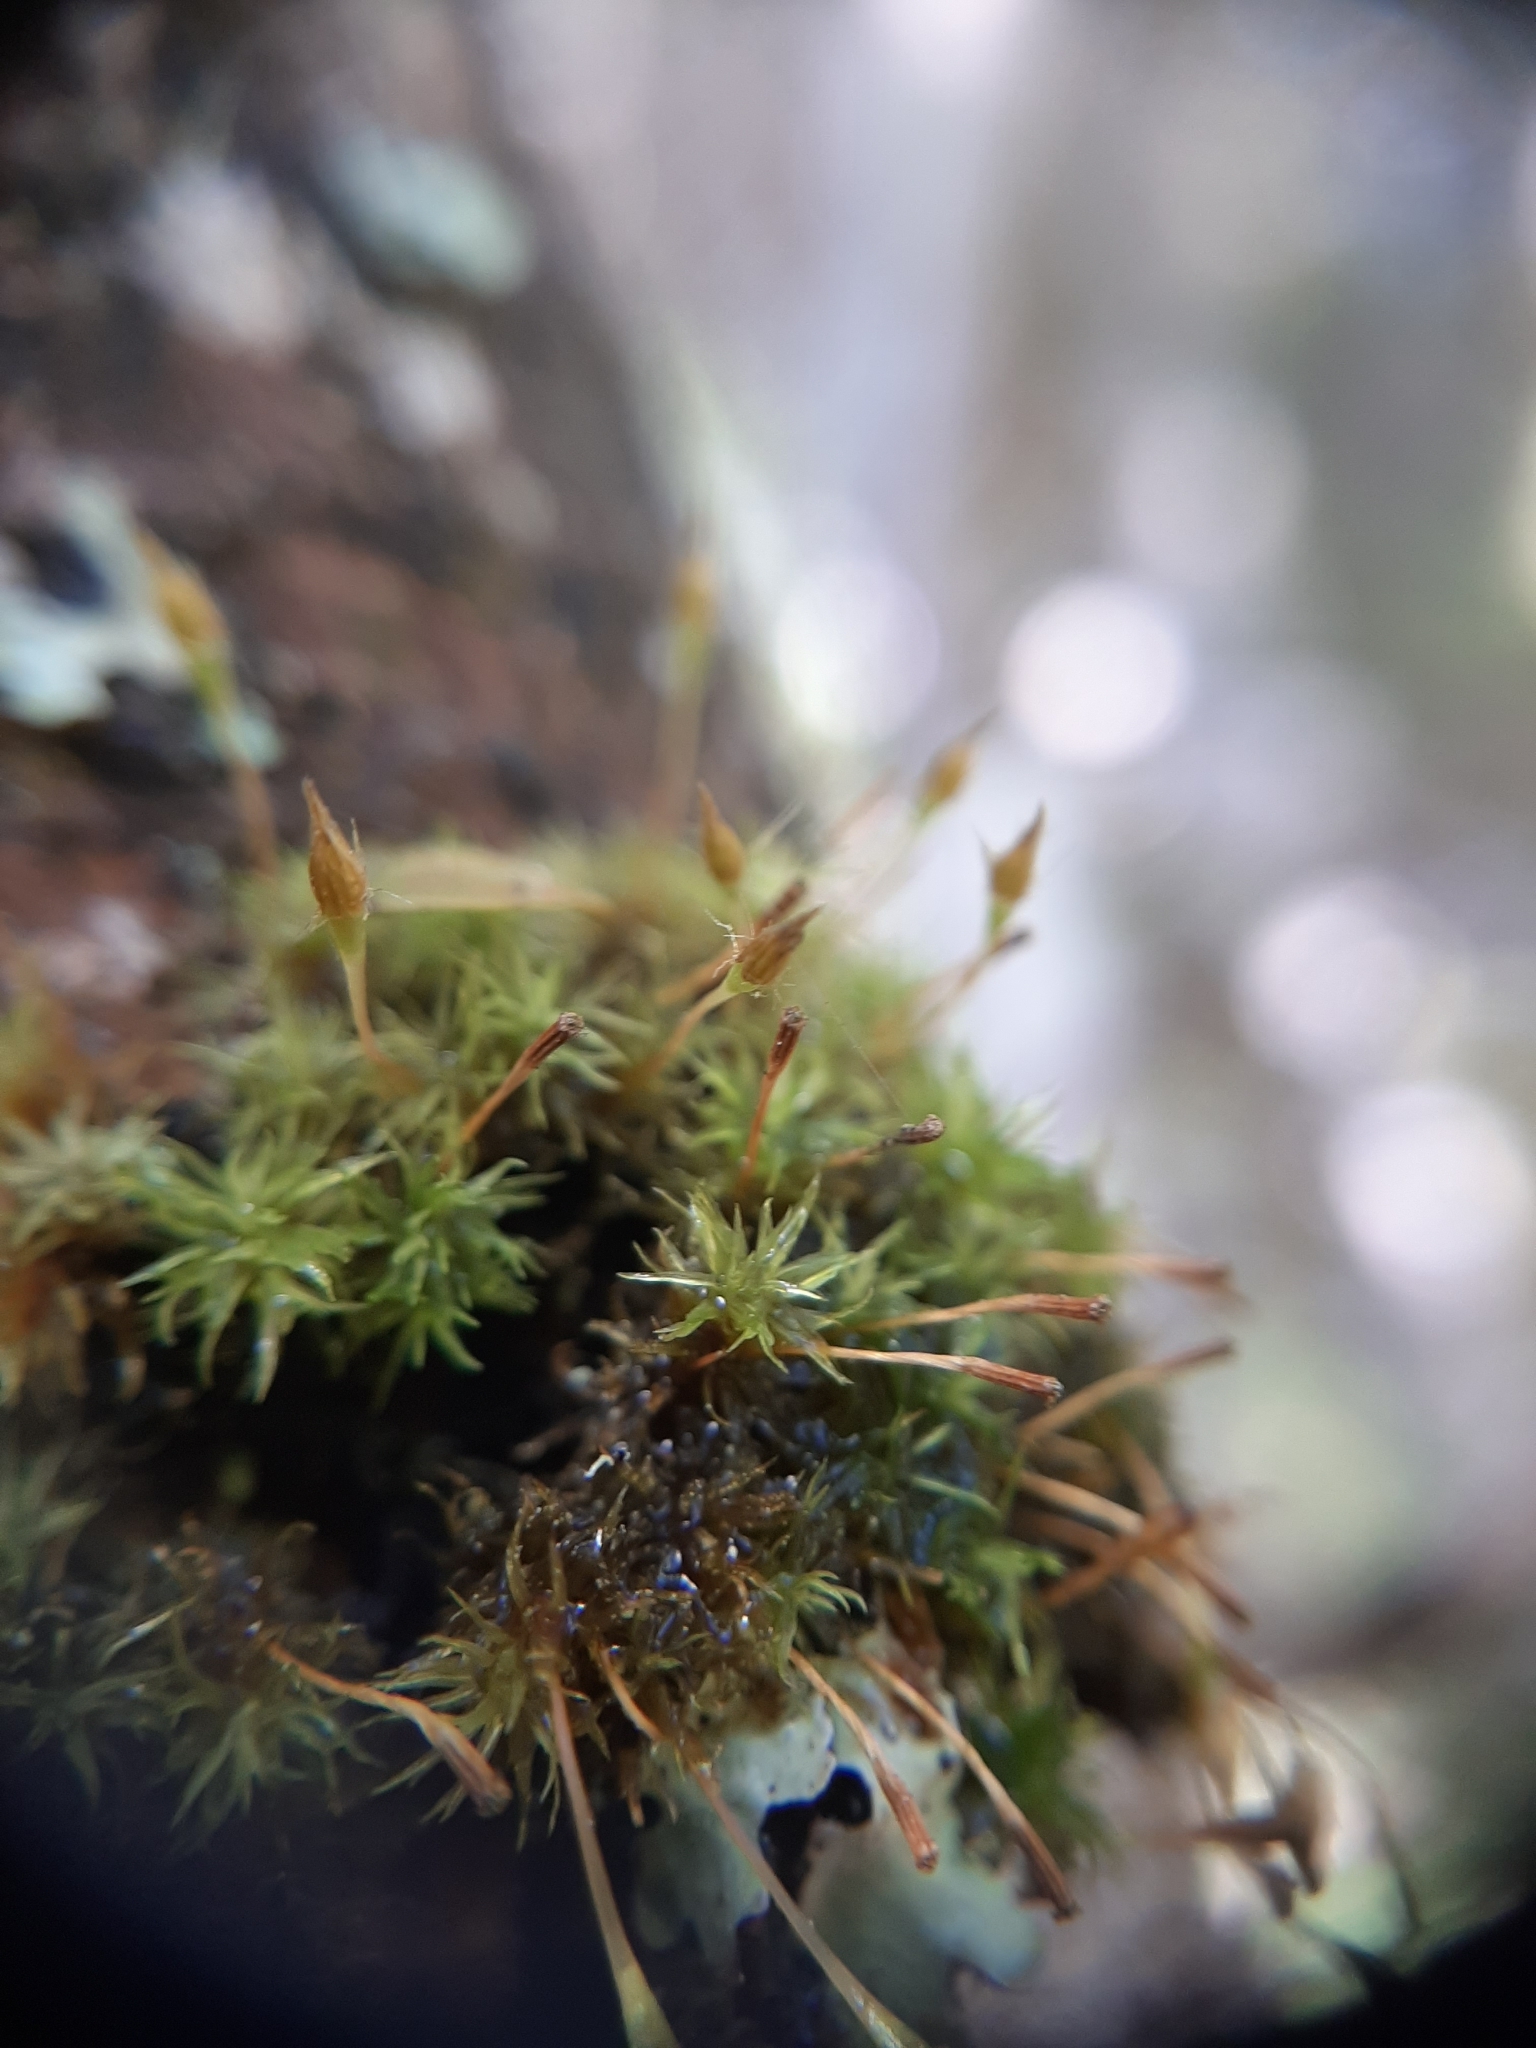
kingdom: Plantae
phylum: Bryophyta
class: Bryopsida
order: Orthotrichales
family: Orthotrichaceae
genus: Macrocoma
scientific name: Macrocoma tenuis
